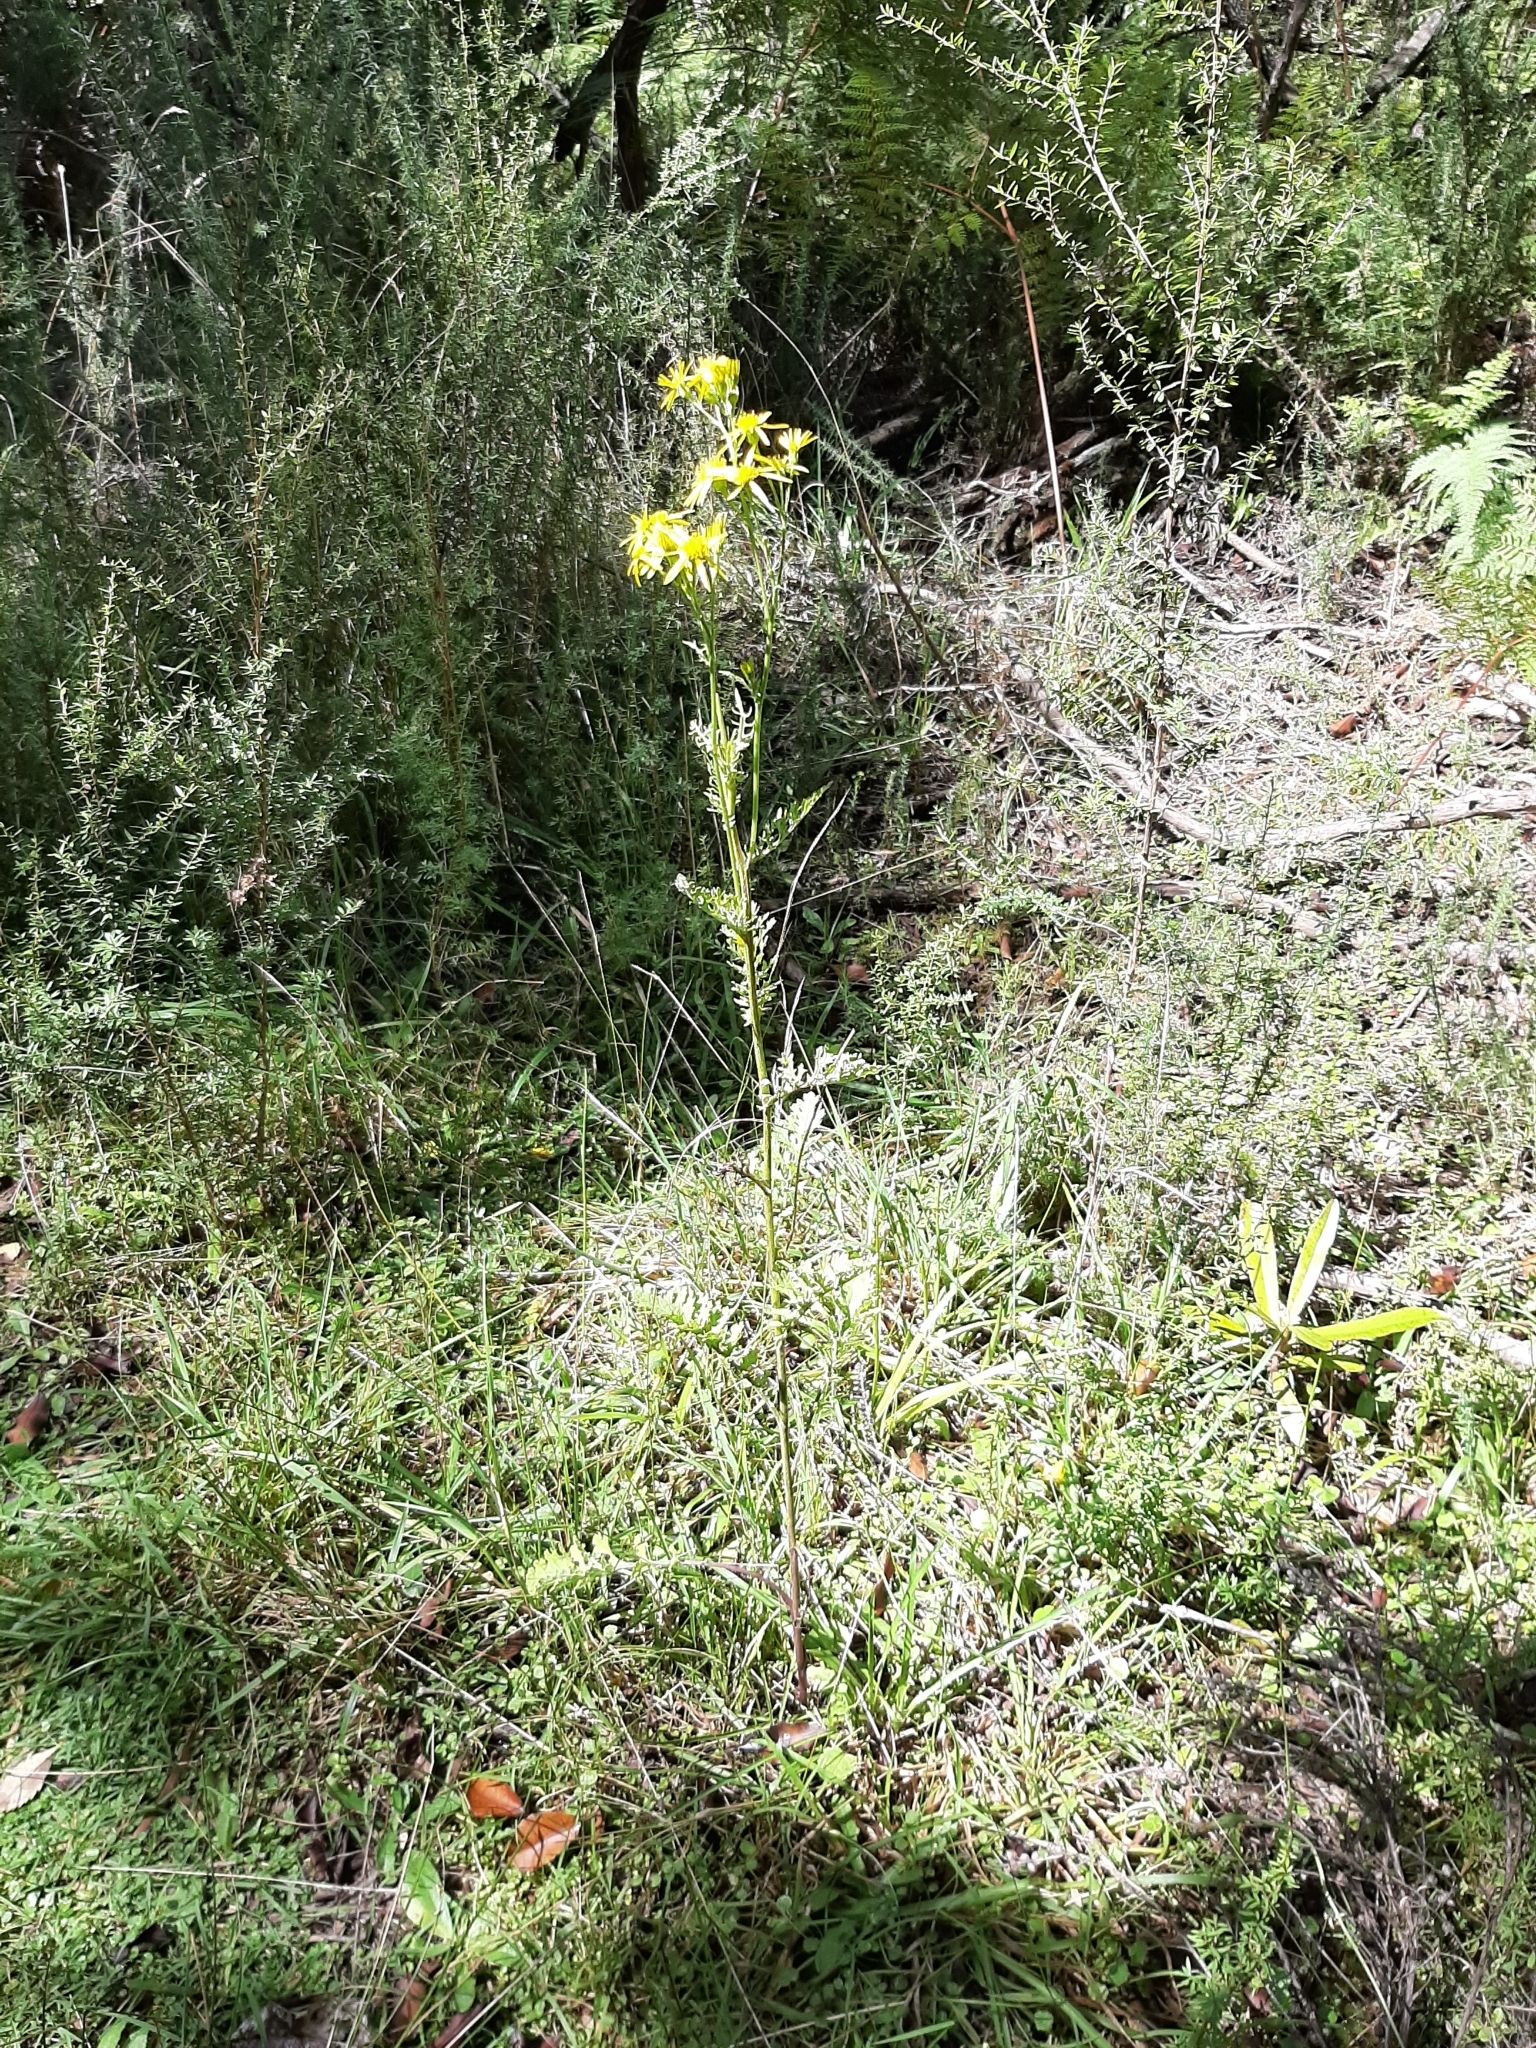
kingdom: Plantae
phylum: Tracheophyta
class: Magnoliopsida
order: Asterales
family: Asteraceae
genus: Jacobaea
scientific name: Jacobaea vulgaris
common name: Stinking willie
